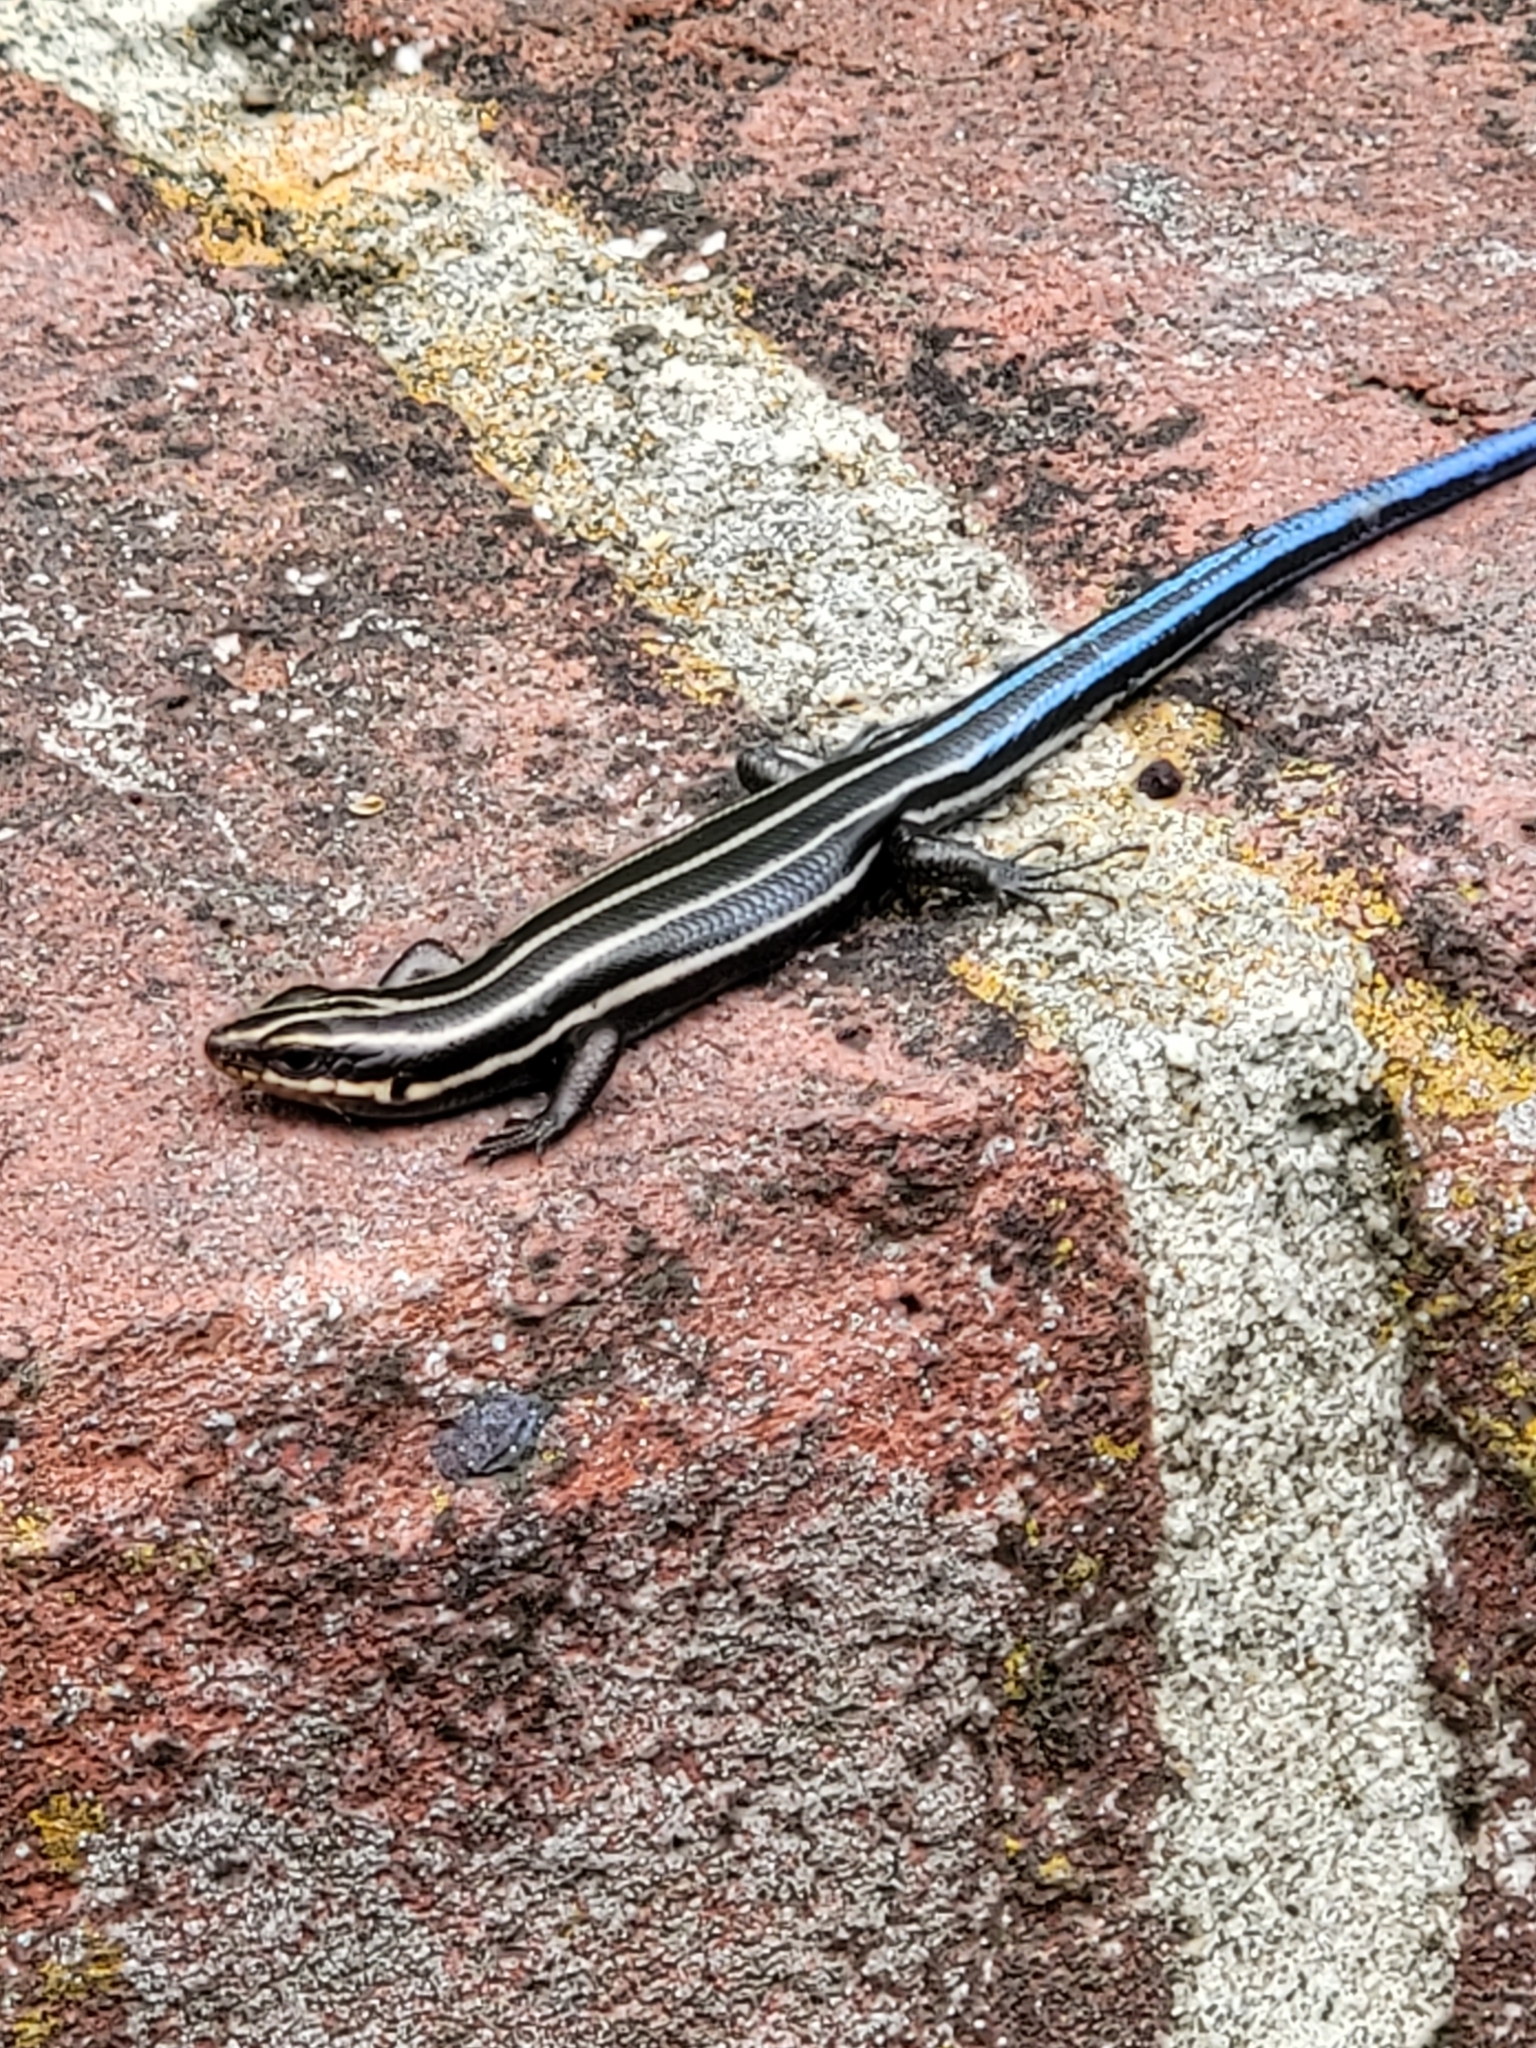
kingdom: Animalia
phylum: Chordata
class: Squamata
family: Scincidae
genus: Plestiodon
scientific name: Plestiodon fasciatus
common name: Five-lined skink
